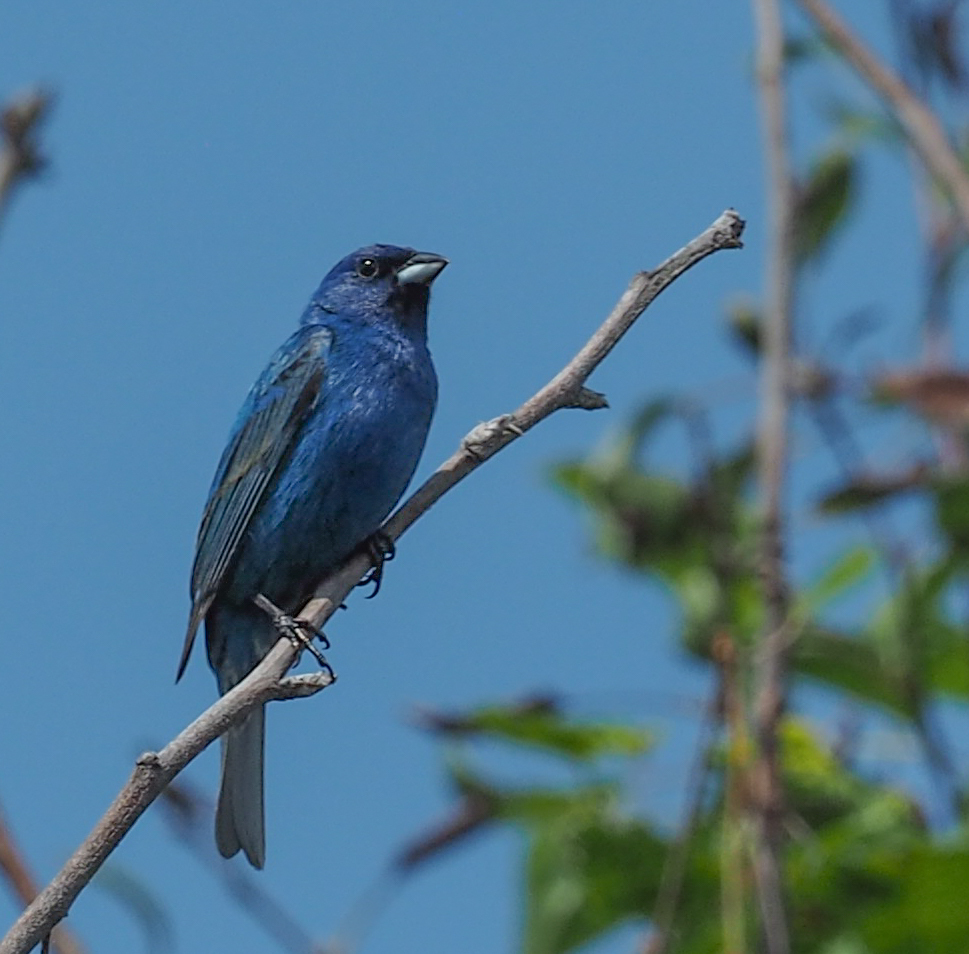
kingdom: Animalia
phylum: Chordata
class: Aves
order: Passeriformes
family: Cardinalidae
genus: Passerina
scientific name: Passerina cyanea
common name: Indigo bunting
